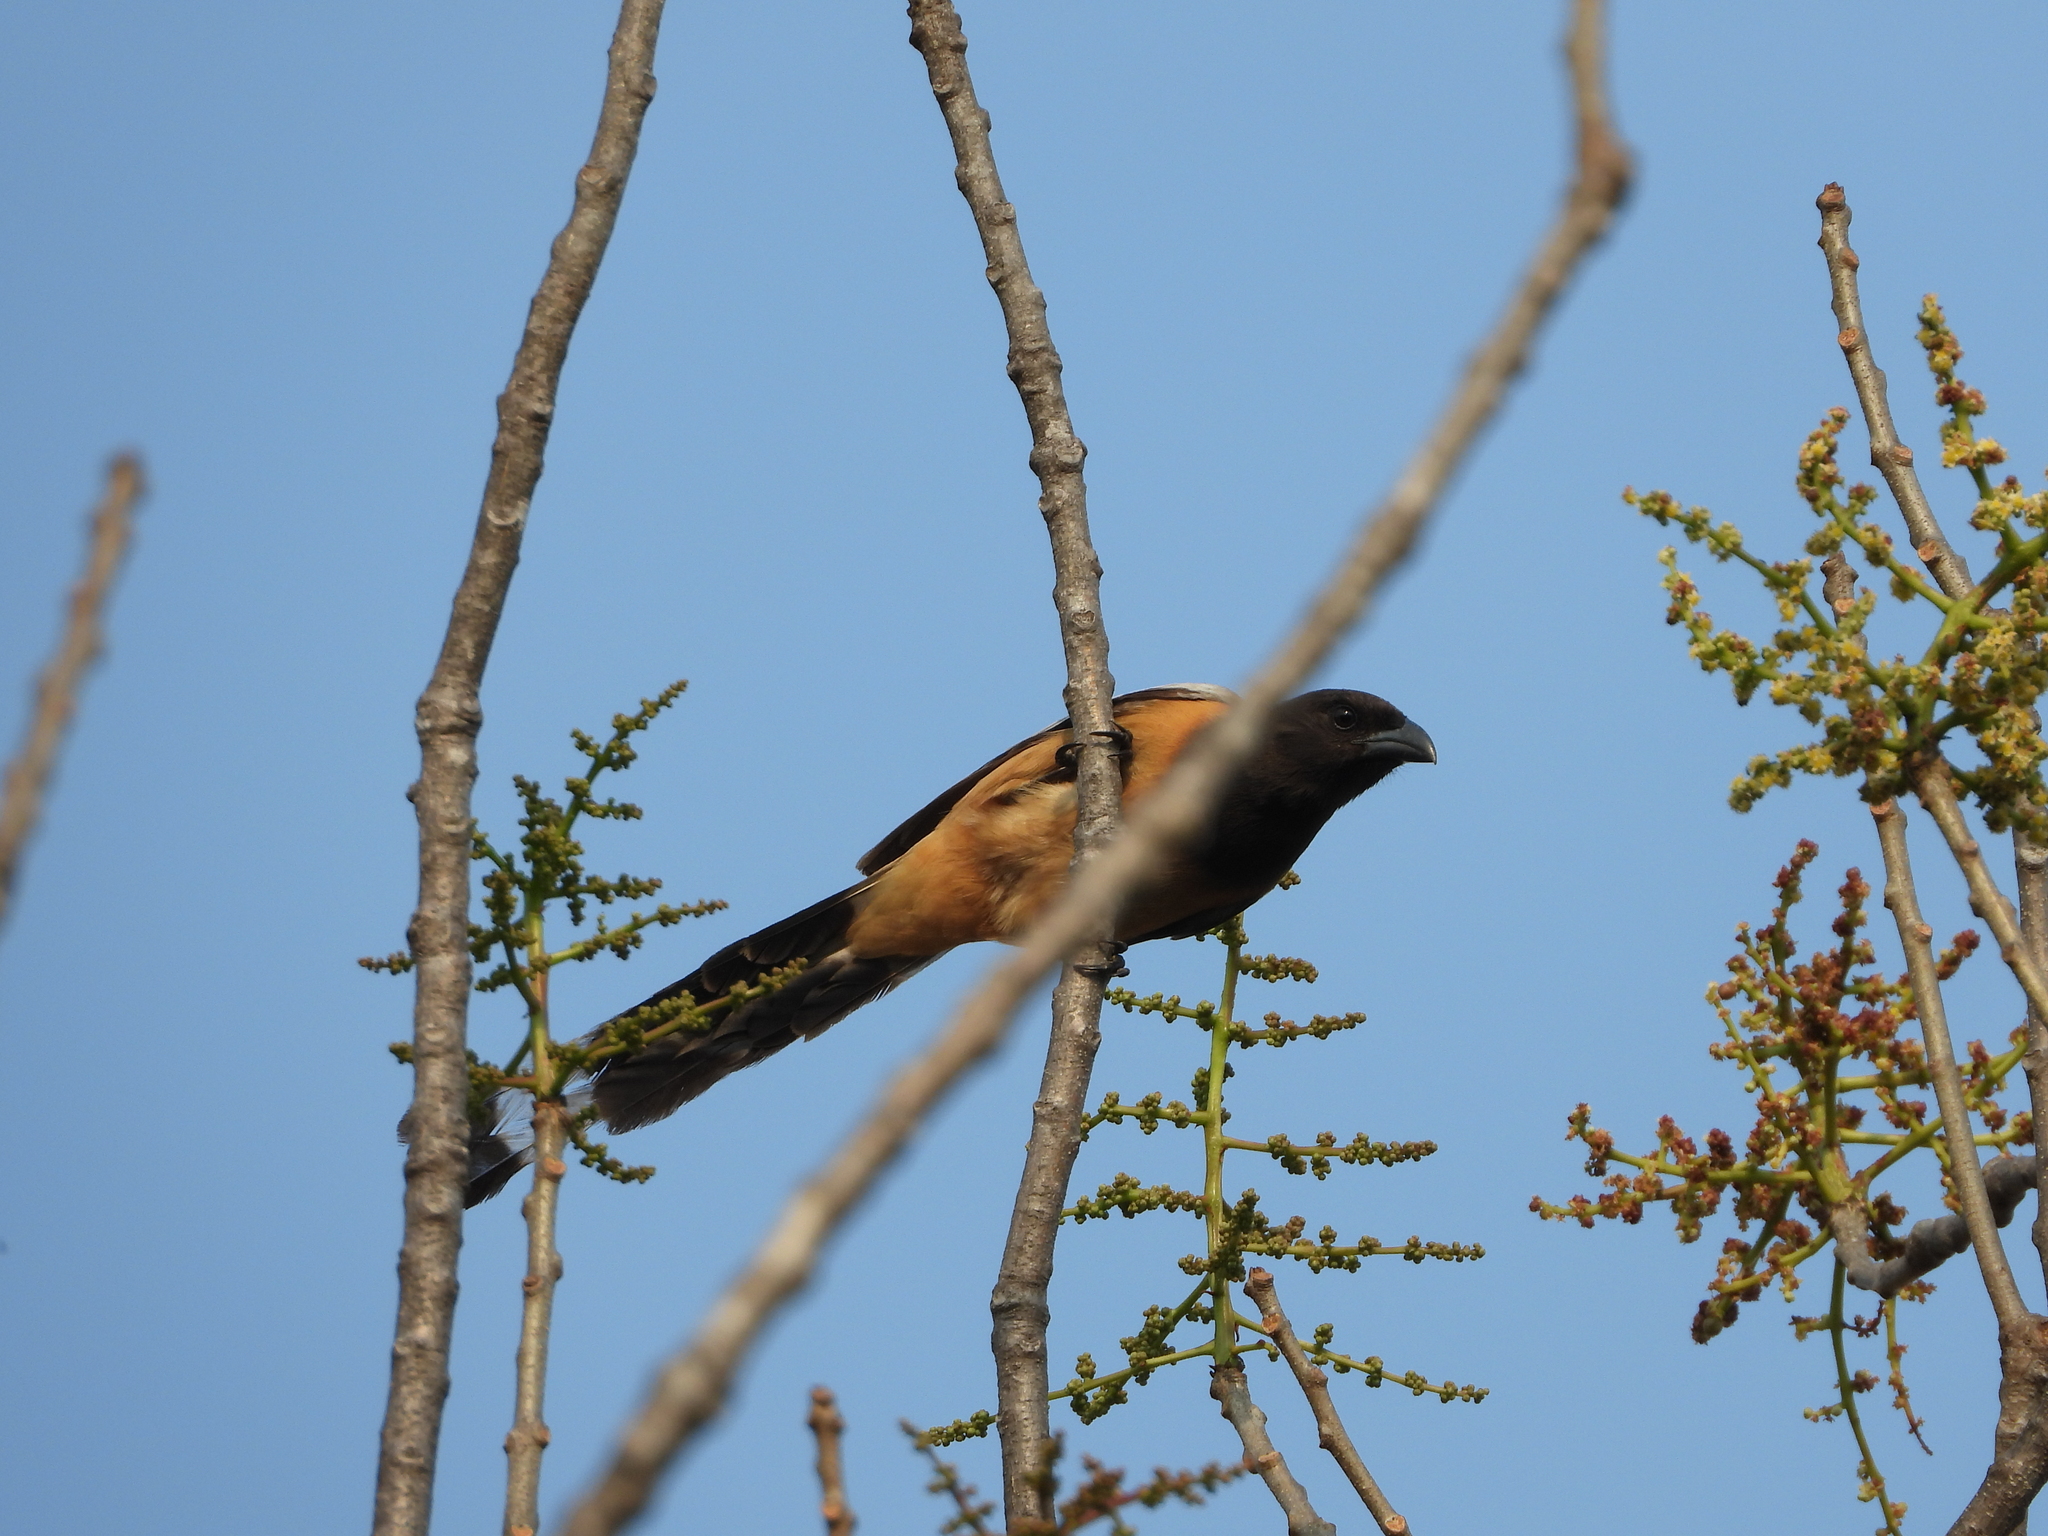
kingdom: Animalia
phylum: Chordata
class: Aves
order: Passeriformes
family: Corvidae
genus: Dendrocitta
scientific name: Dendrocitta vagabunda
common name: Rufous treepie
